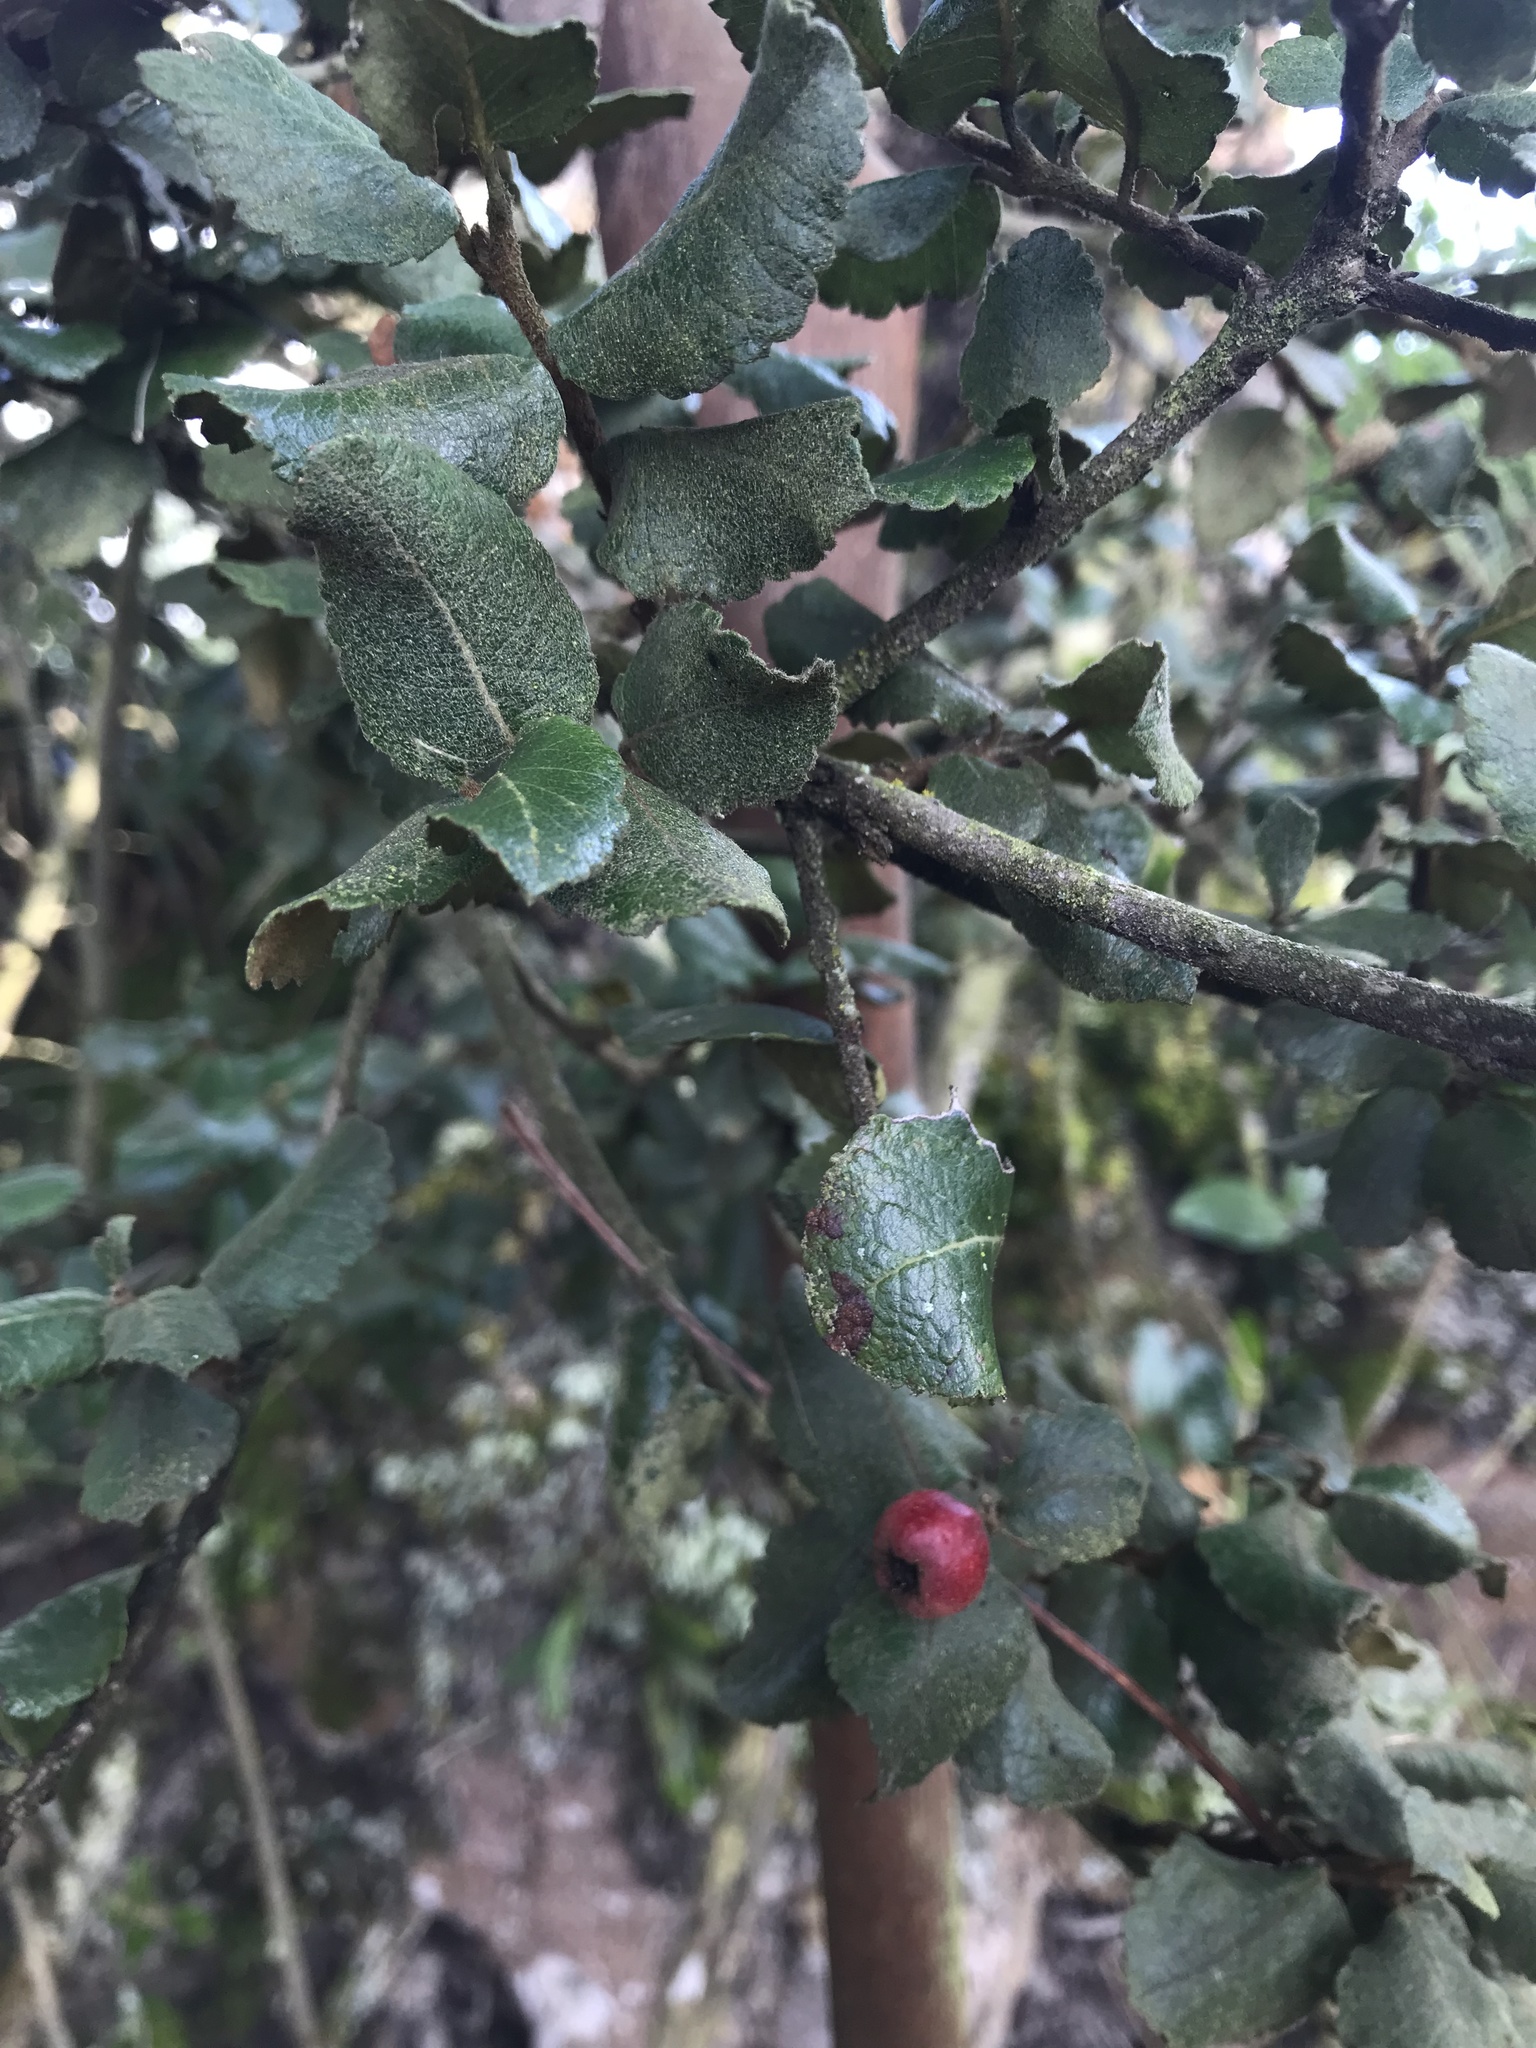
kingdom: Plantae
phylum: Tracheophyta
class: Magnoliopsida
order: Rosales
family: Rosaceae
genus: Hesperomeles
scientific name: Hesperomeles goudotiana
